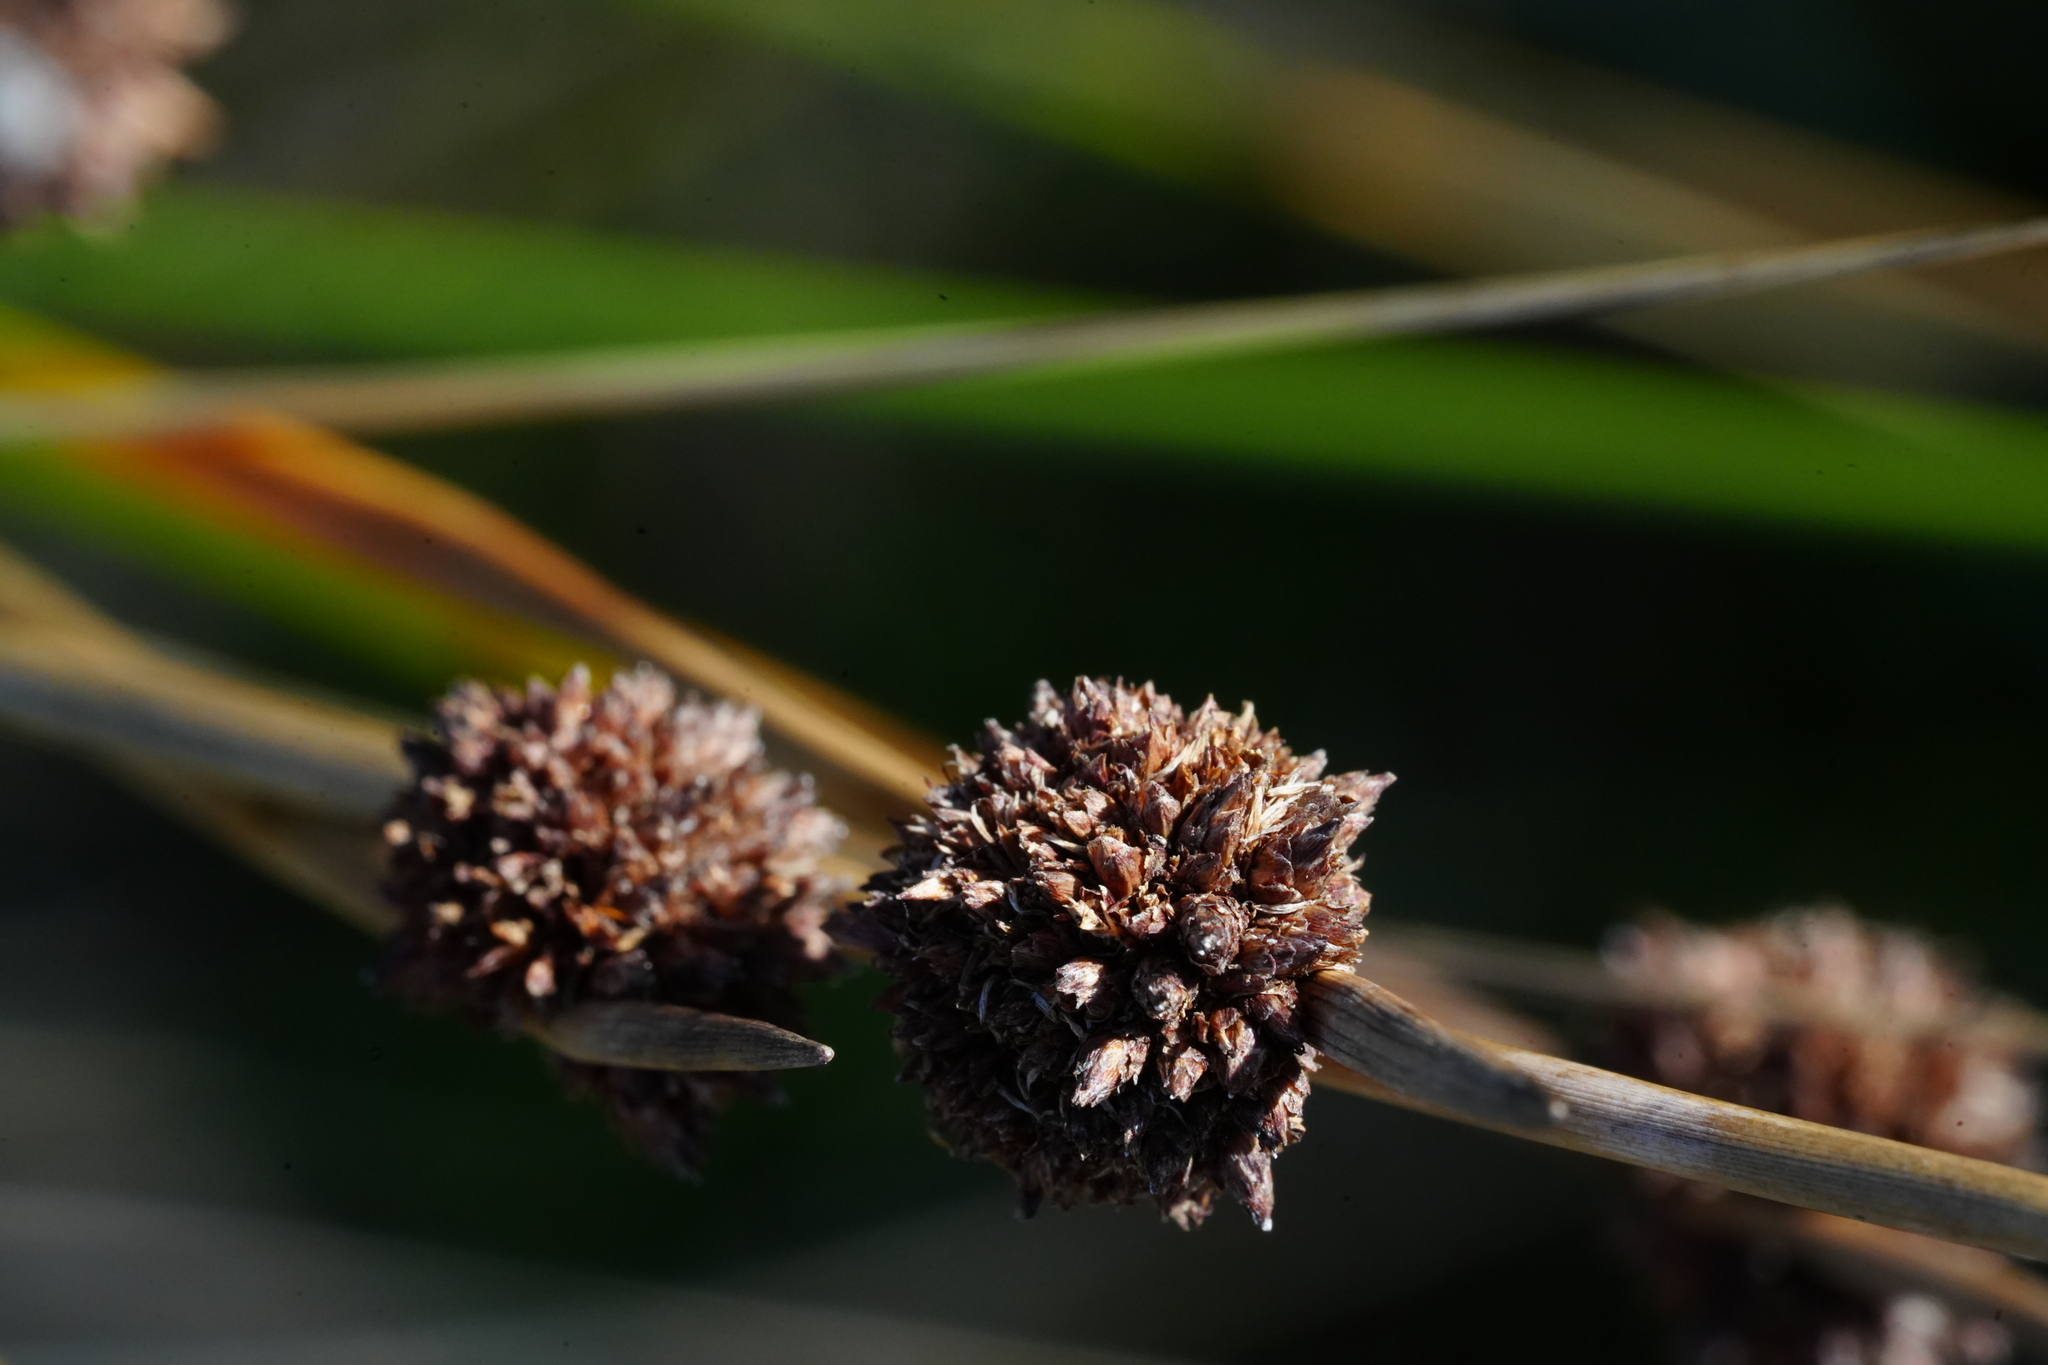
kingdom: Plantae
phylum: Tracheophyta
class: Liliopsida
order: Poales
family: Cyperaceae
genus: Ficinia
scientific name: Ficinia nodosa
